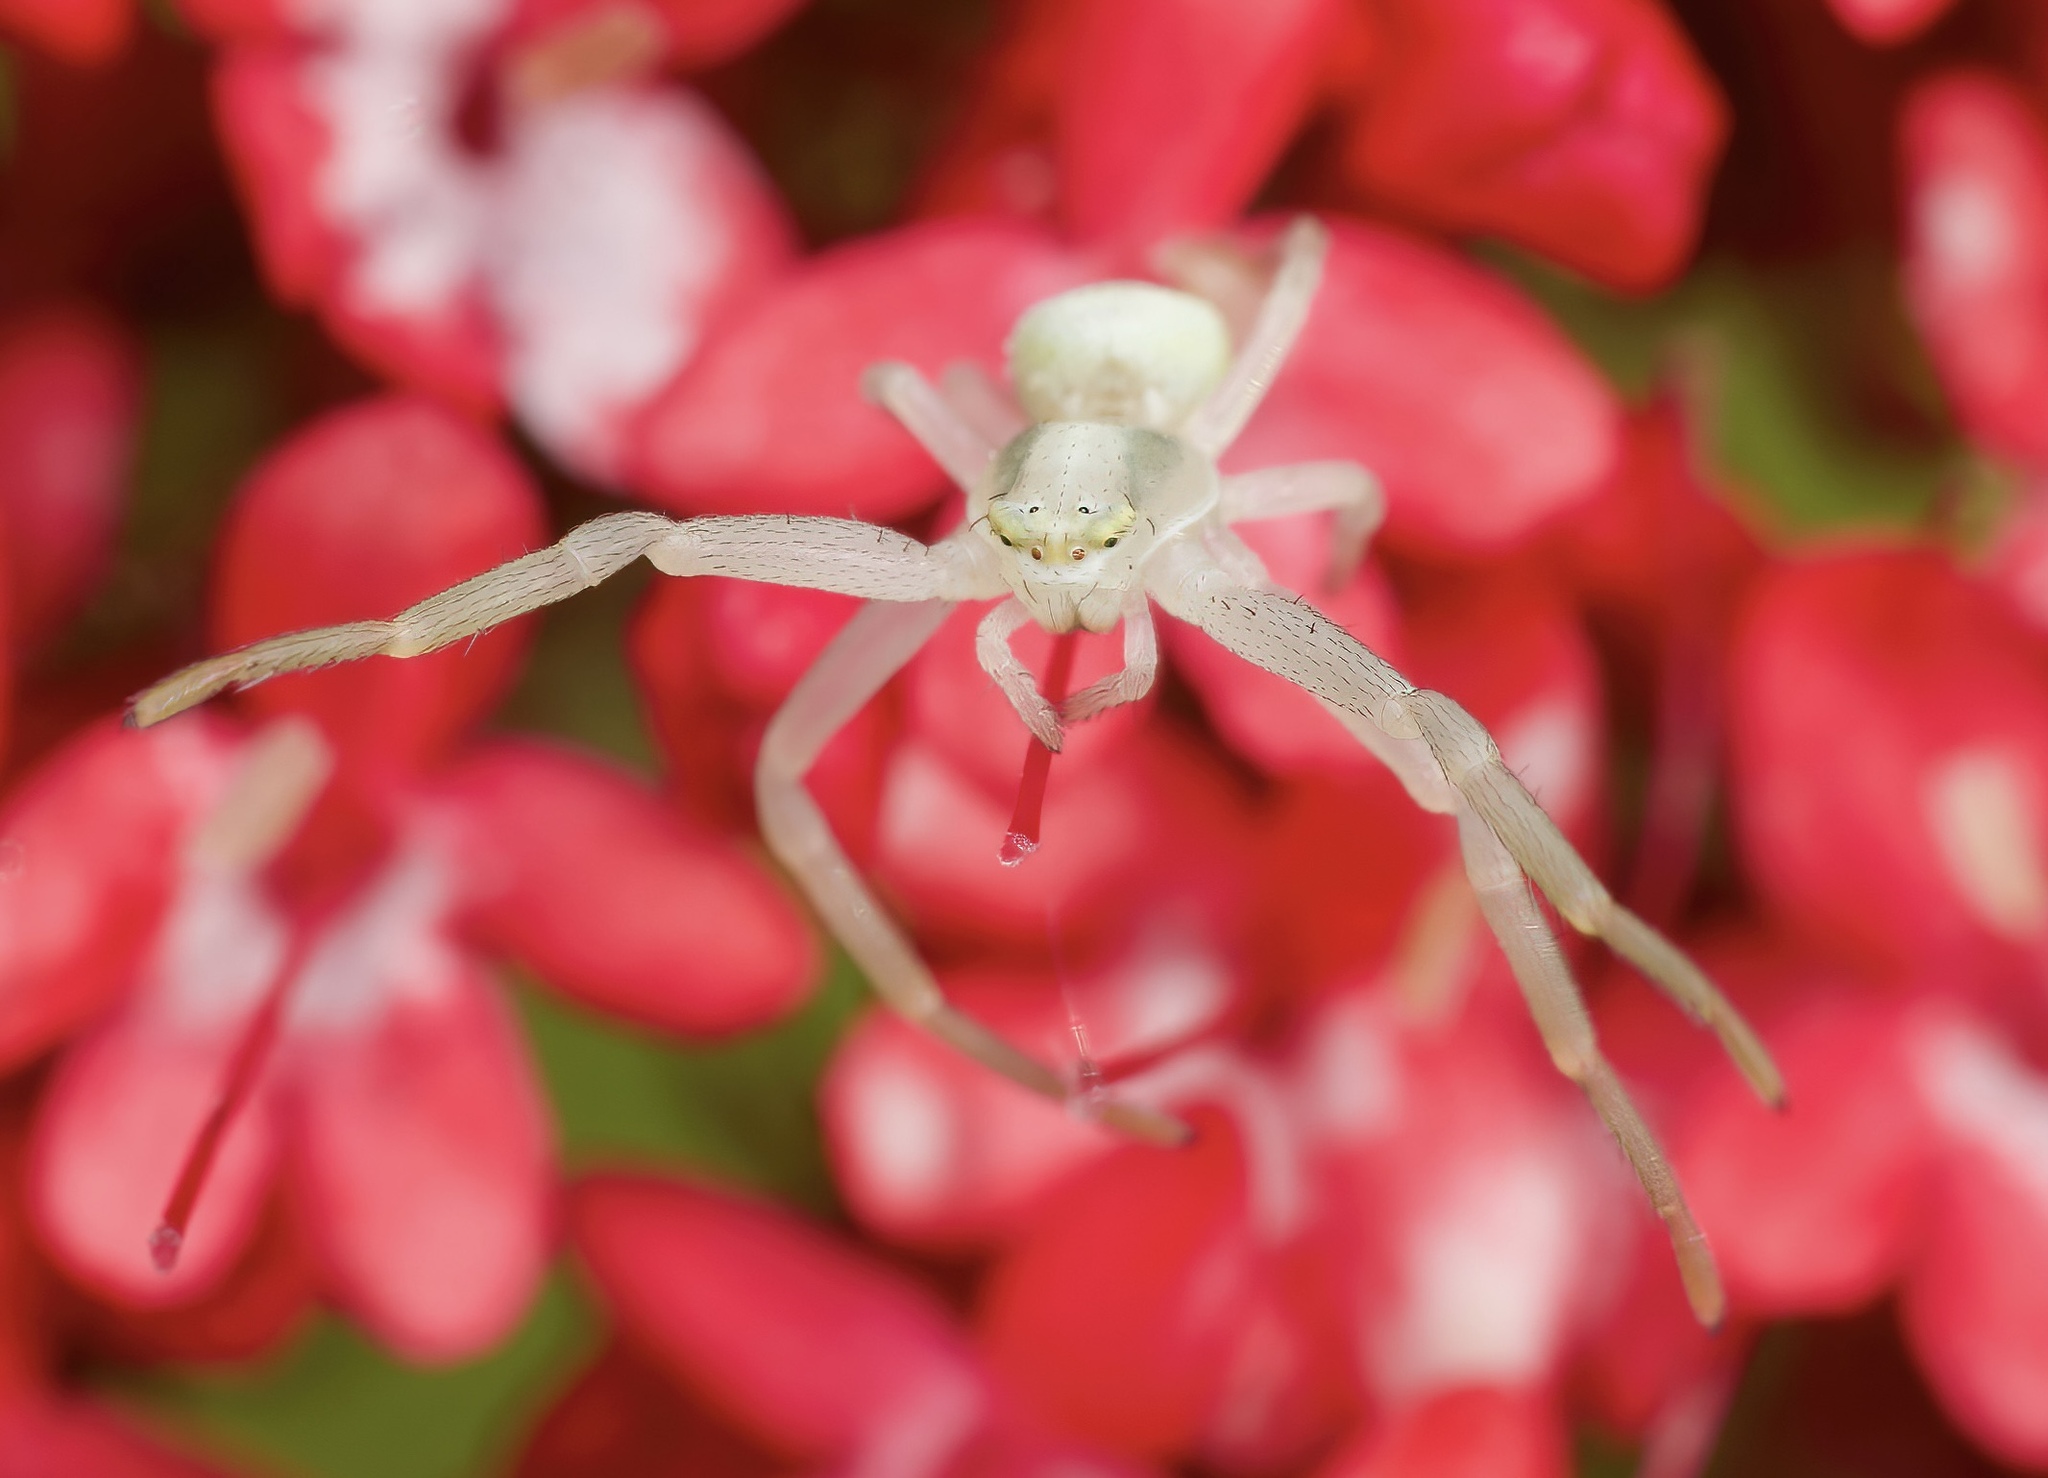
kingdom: Animalia
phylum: Arthropoda
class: Arachnida
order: Araneae
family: Thomisidae
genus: Misumena
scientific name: Misumena vatia
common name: Goldenrod crab spider
